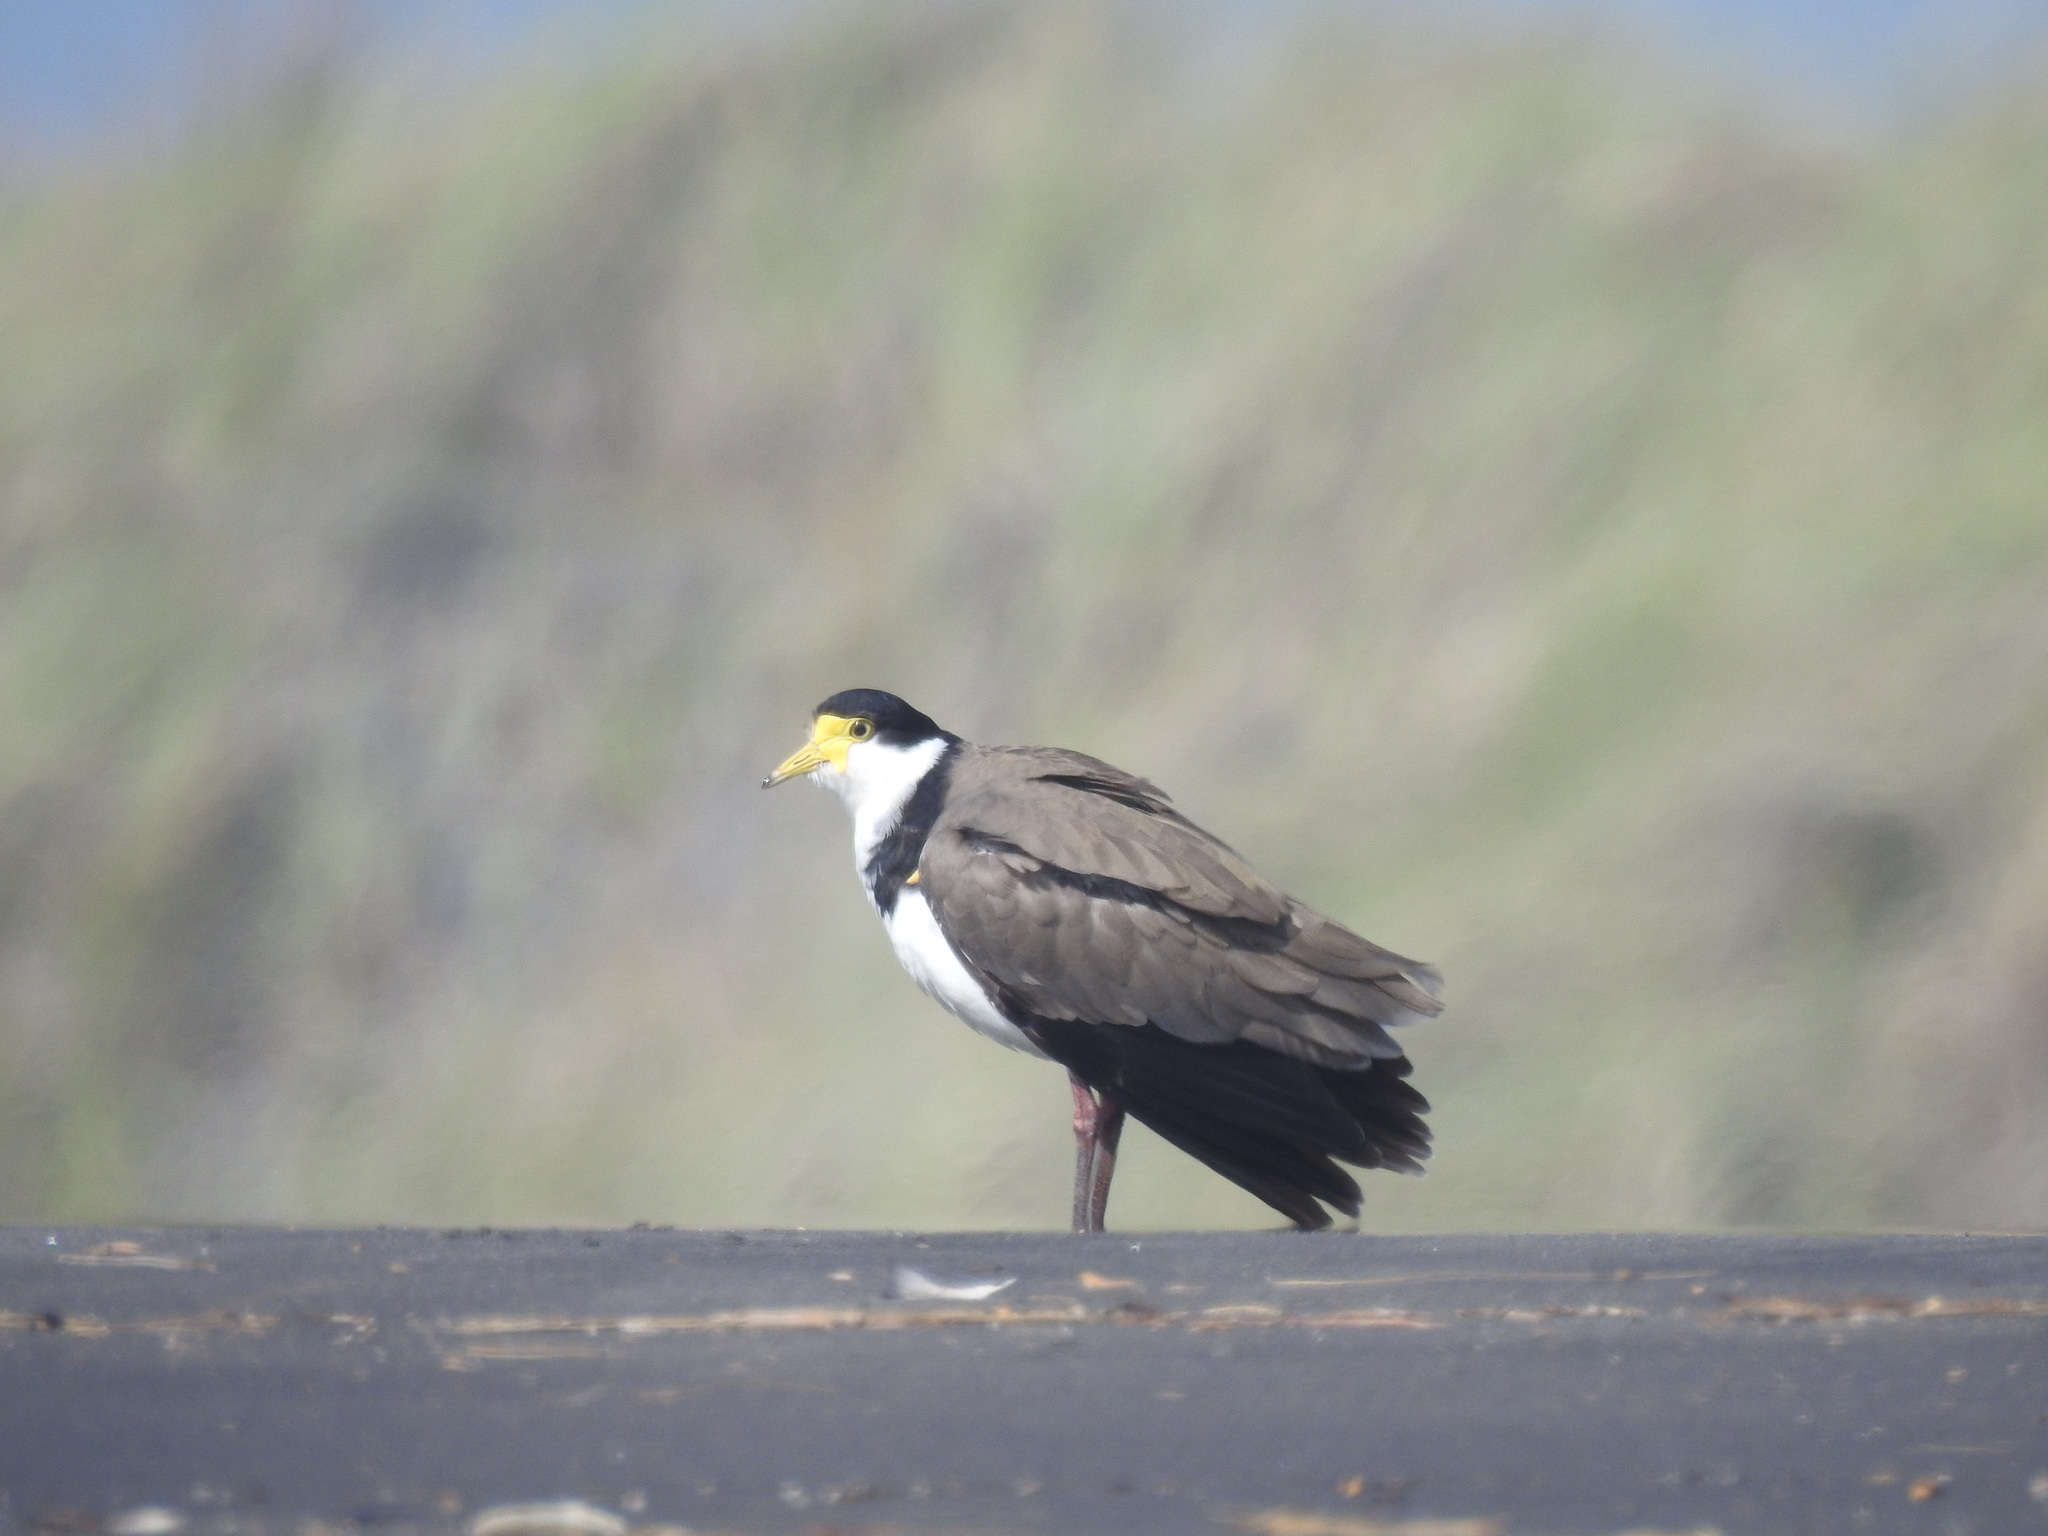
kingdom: Animalia
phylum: Chordata
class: Aves
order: Charadriiformes
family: Charadriidae
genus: Vanellus
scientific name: Vanellus miles
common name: Masked lapwing
